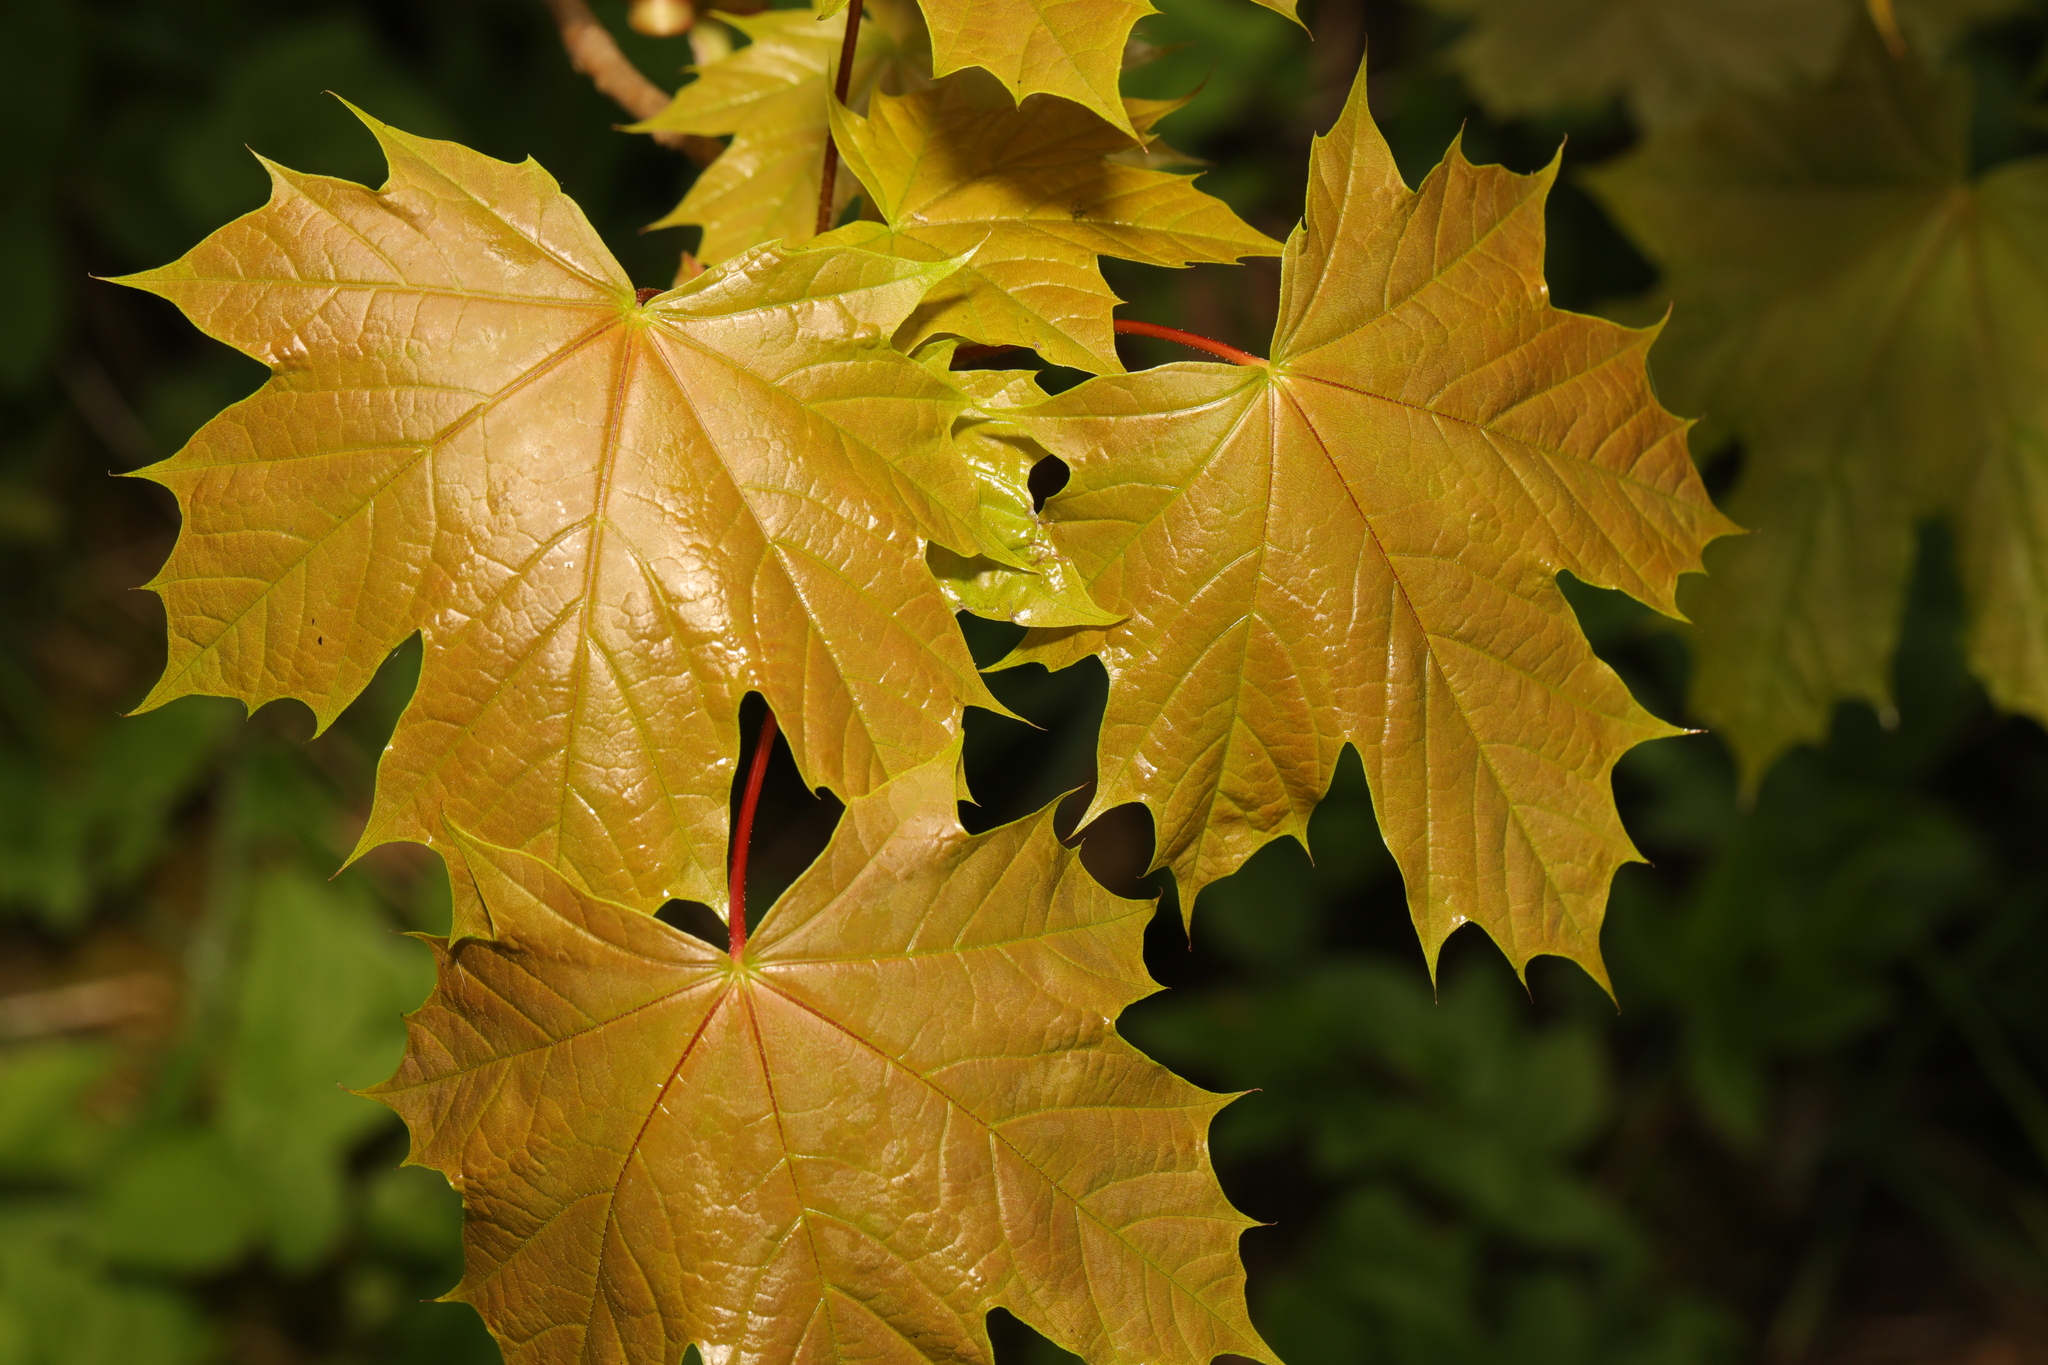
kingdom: Plantae
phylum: Tracheophyta
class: Magnoliopsida
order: Sapindales
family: Sapindaceae
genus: Acer
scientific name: Acer platanoides
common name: Norway maple
